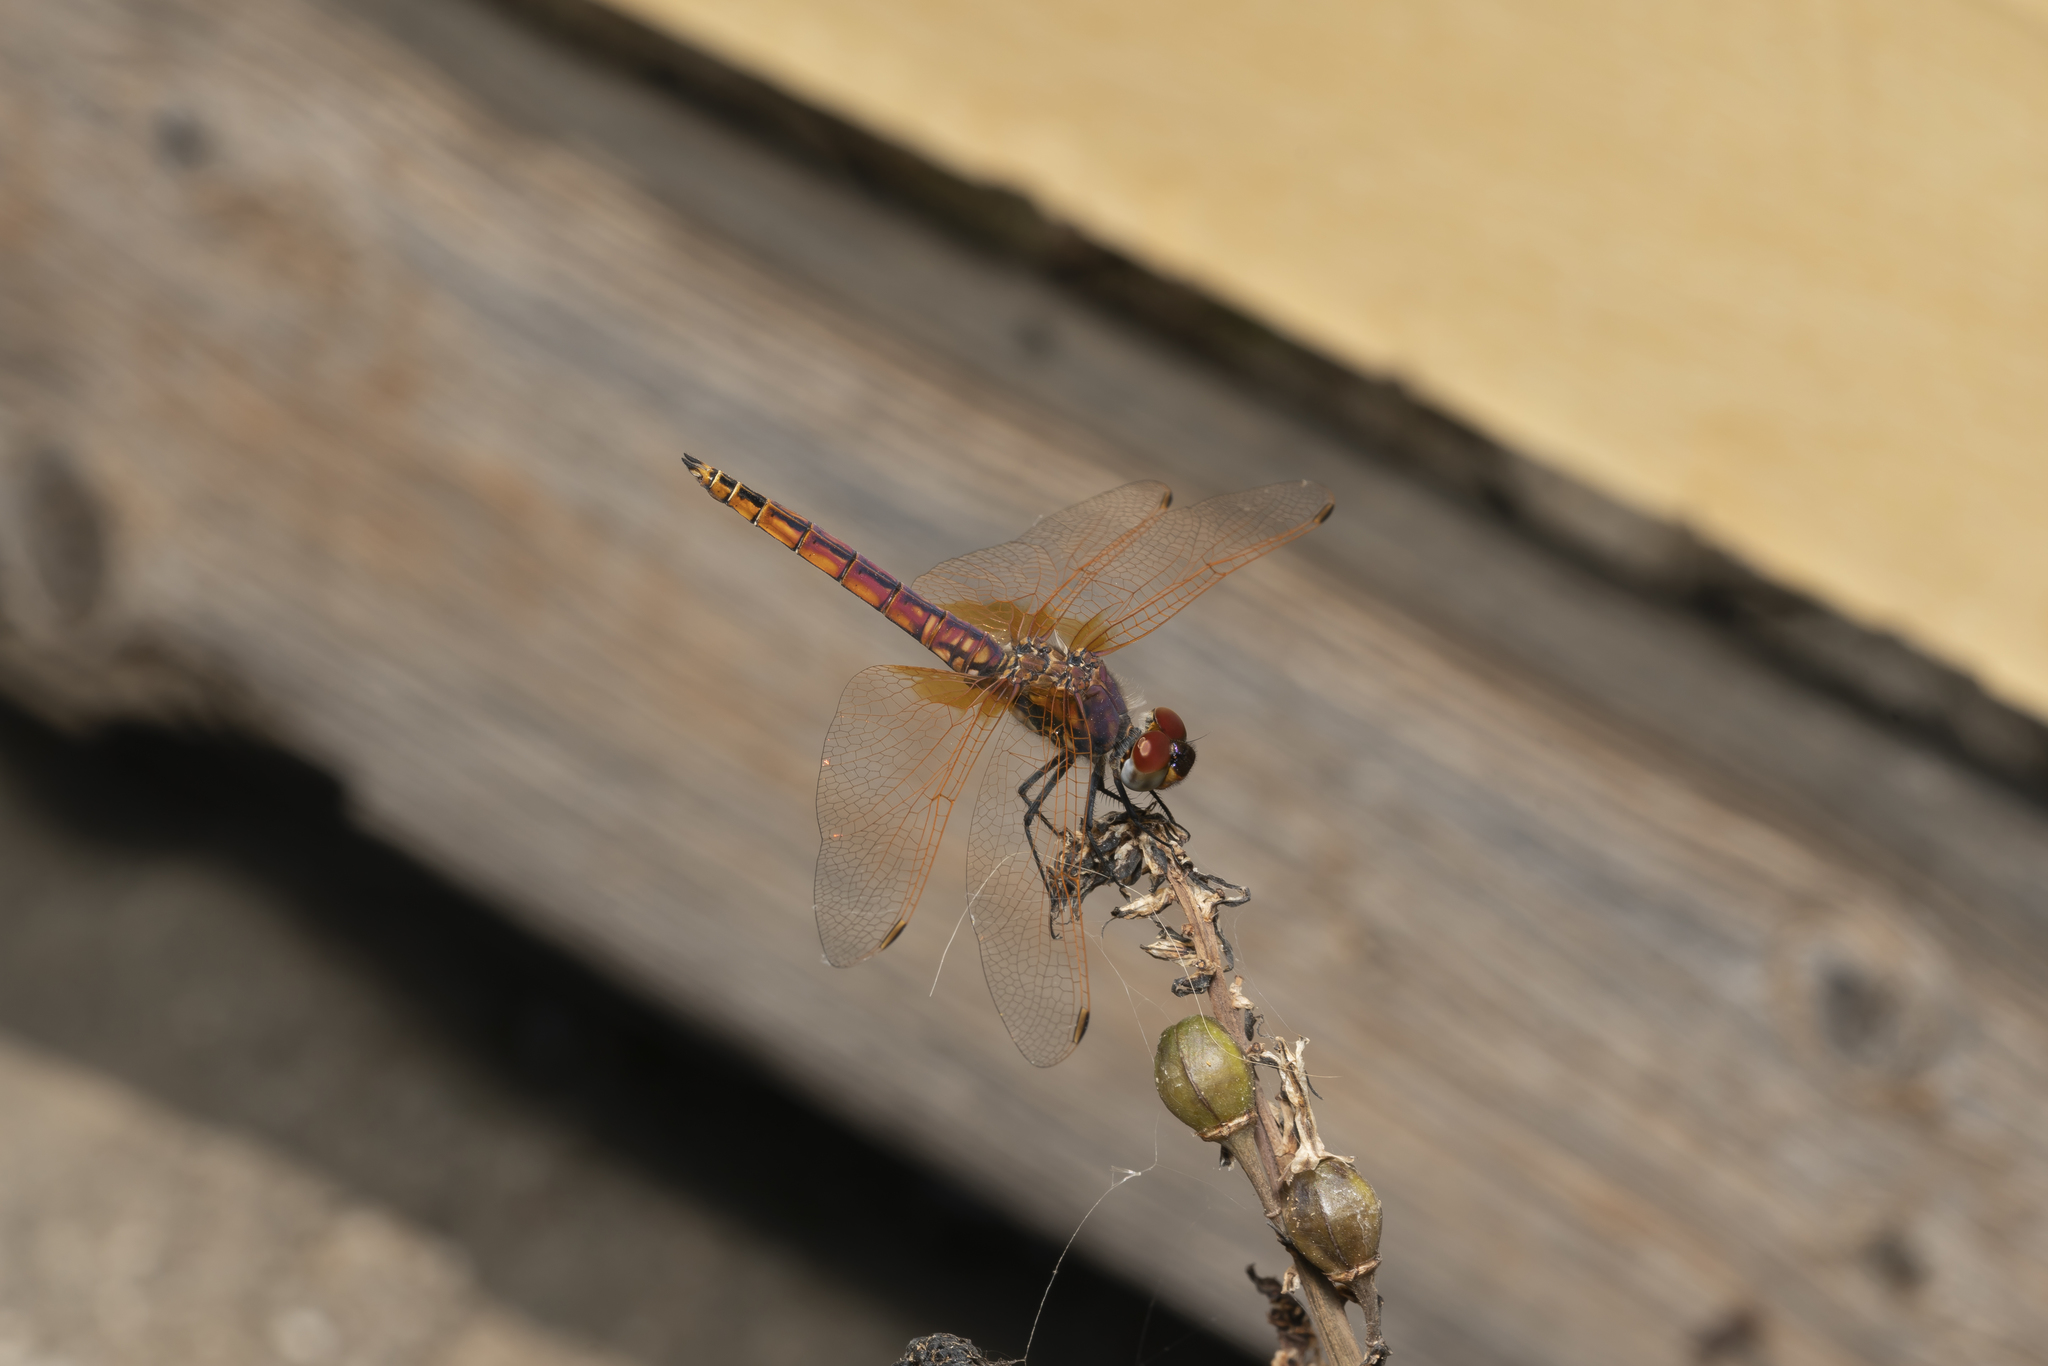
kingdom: Animalia
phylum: Arthropoda
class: Insecta
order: Odonata
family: Libellulidae
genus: Trithemis
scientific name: Trithemis annulata
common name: Violet dropwing
